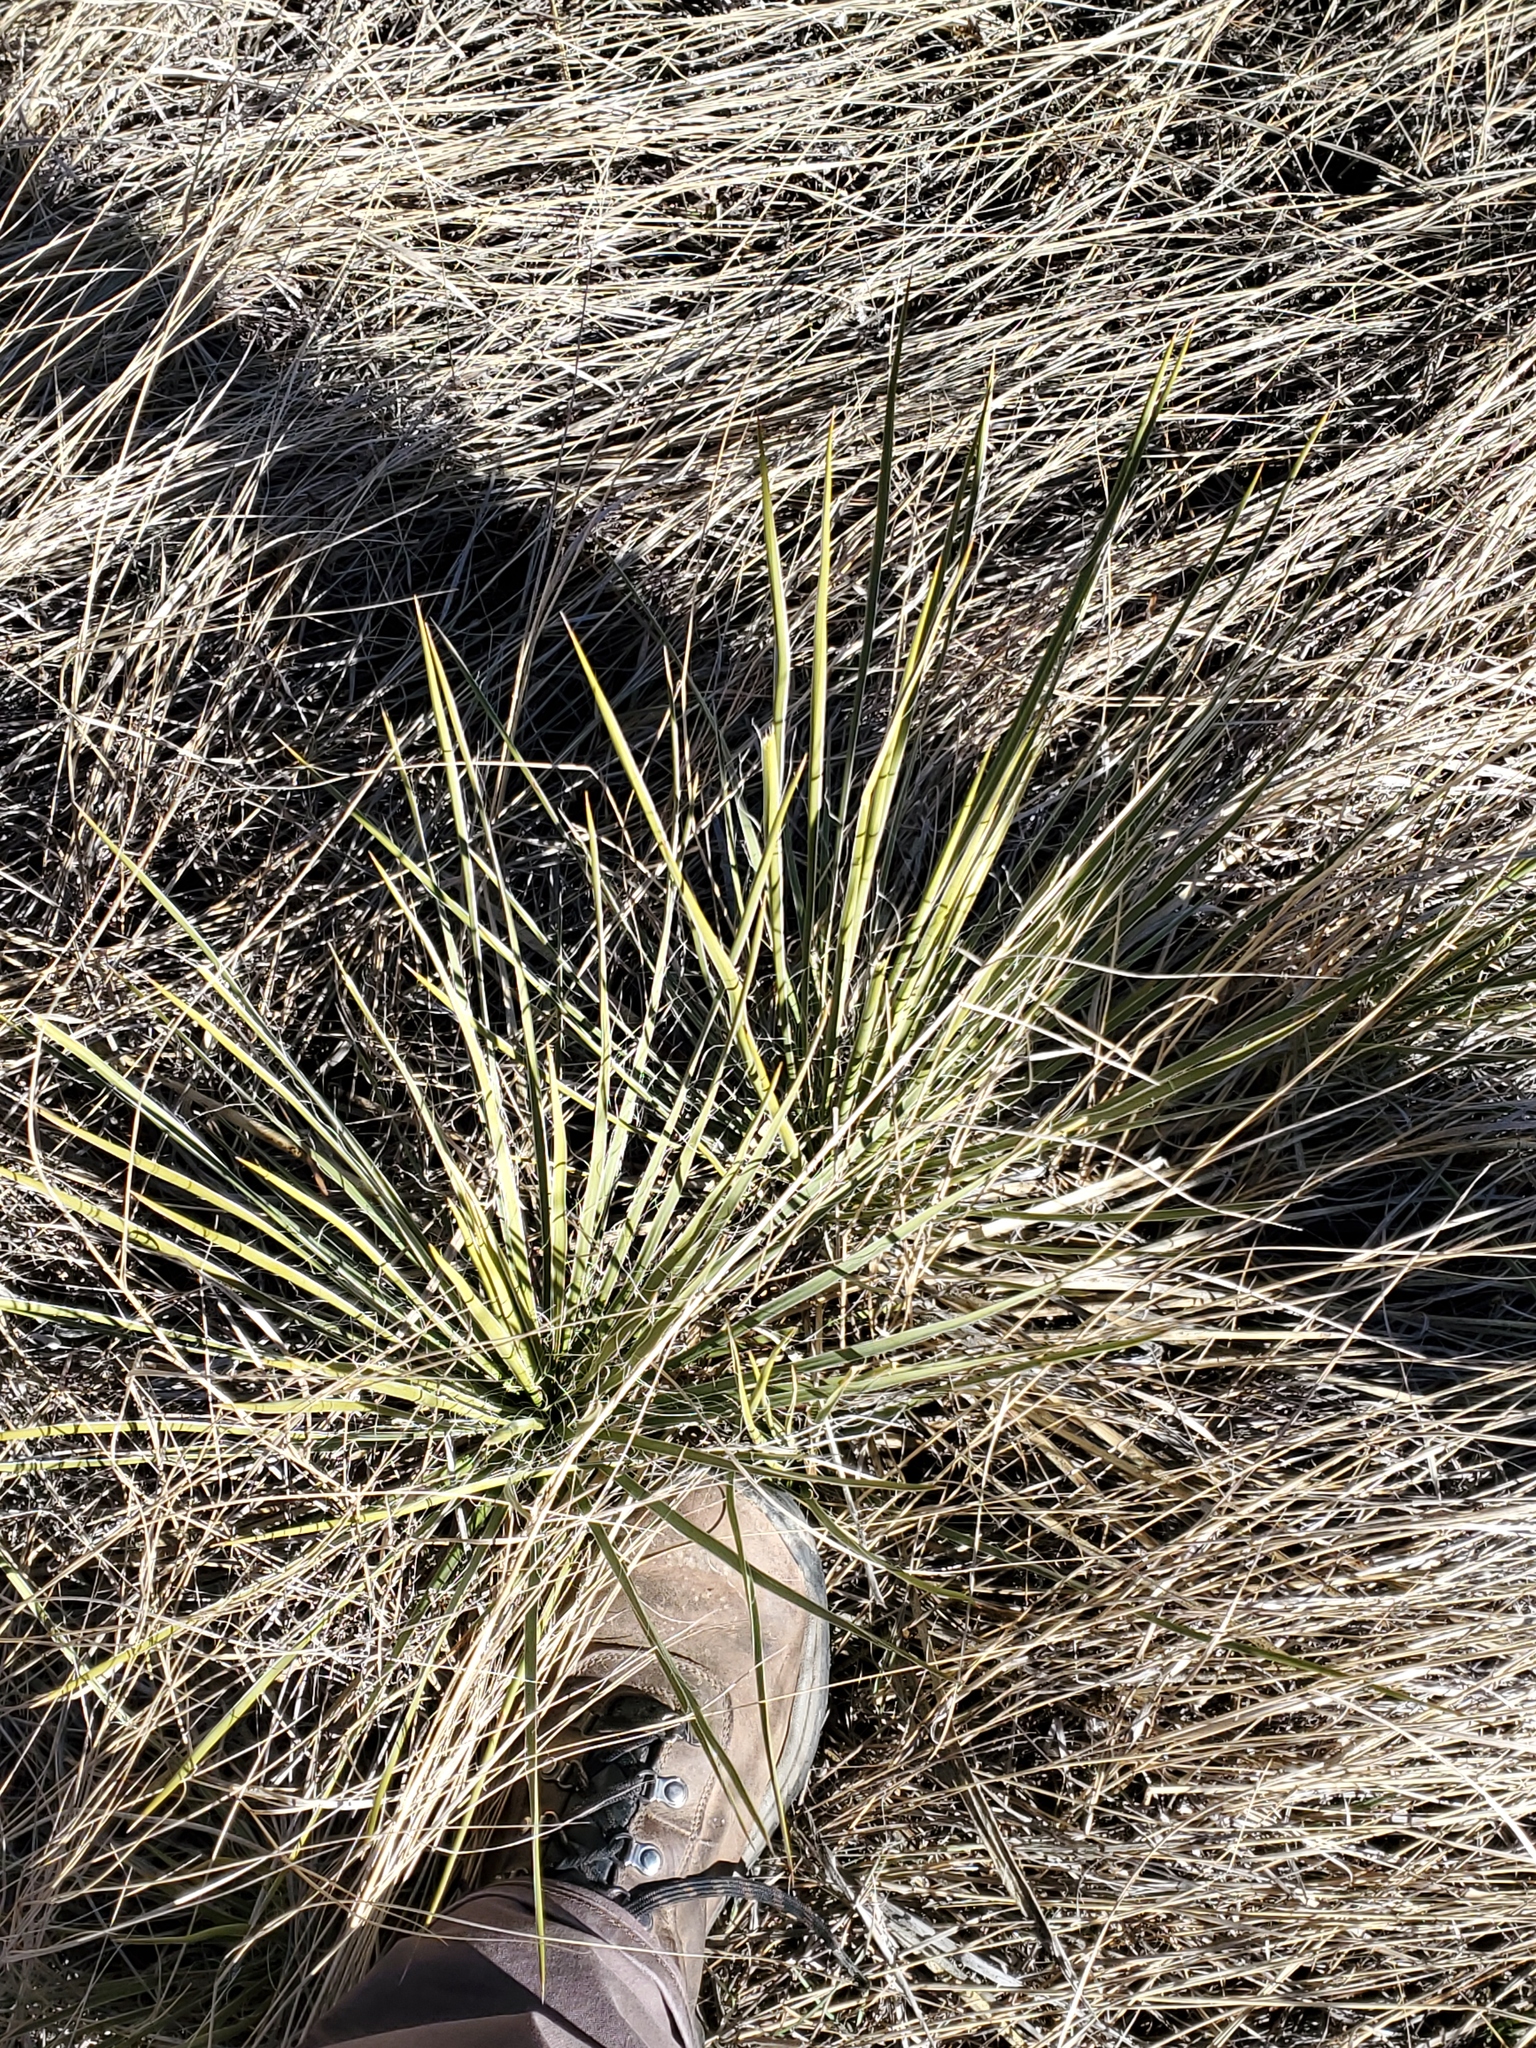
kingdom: Plantae
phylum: Tracheophyta
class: Liliopsida
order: Asparagales
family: Asparagaceae
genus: Yucca
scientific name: Yucca glauca
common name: Great plains yucca
